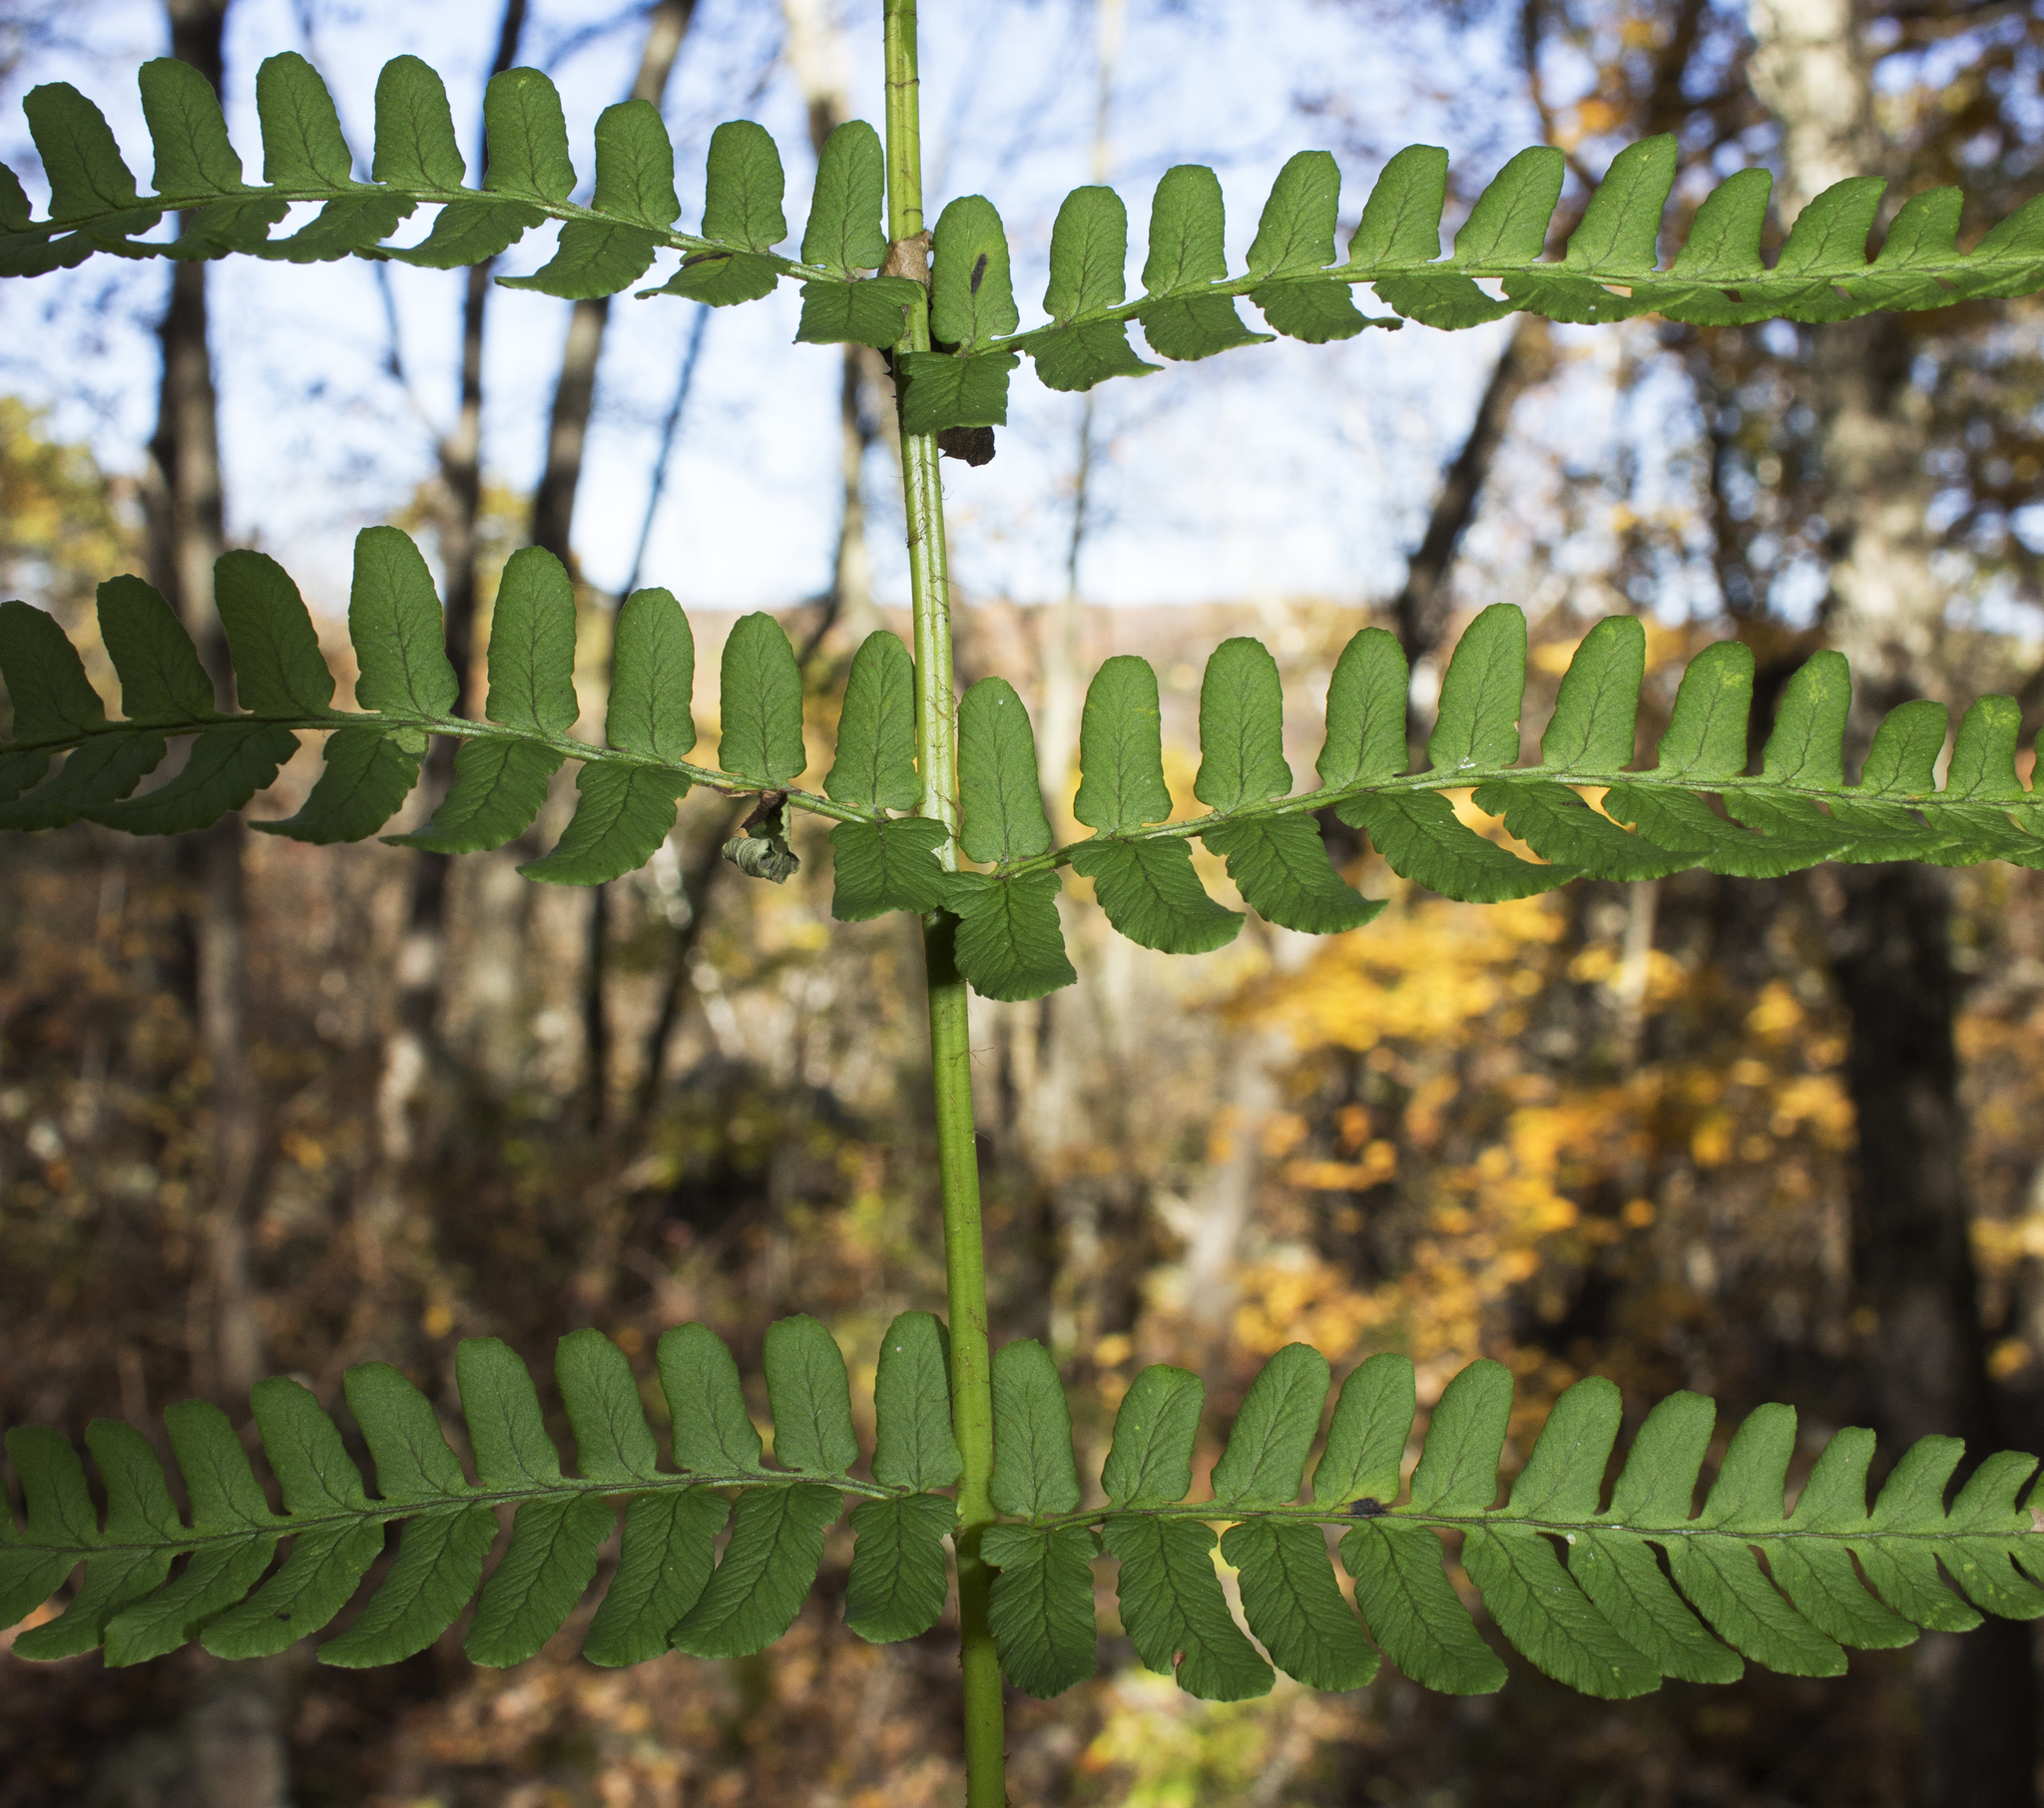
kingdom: Plantae
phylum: Tracheophyta
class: Polypodiopsida
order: Polypodiales
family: Dryopteridaceae
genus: Dryopteris
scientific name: Dryopteris marginalis
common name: Marginal wood fern
